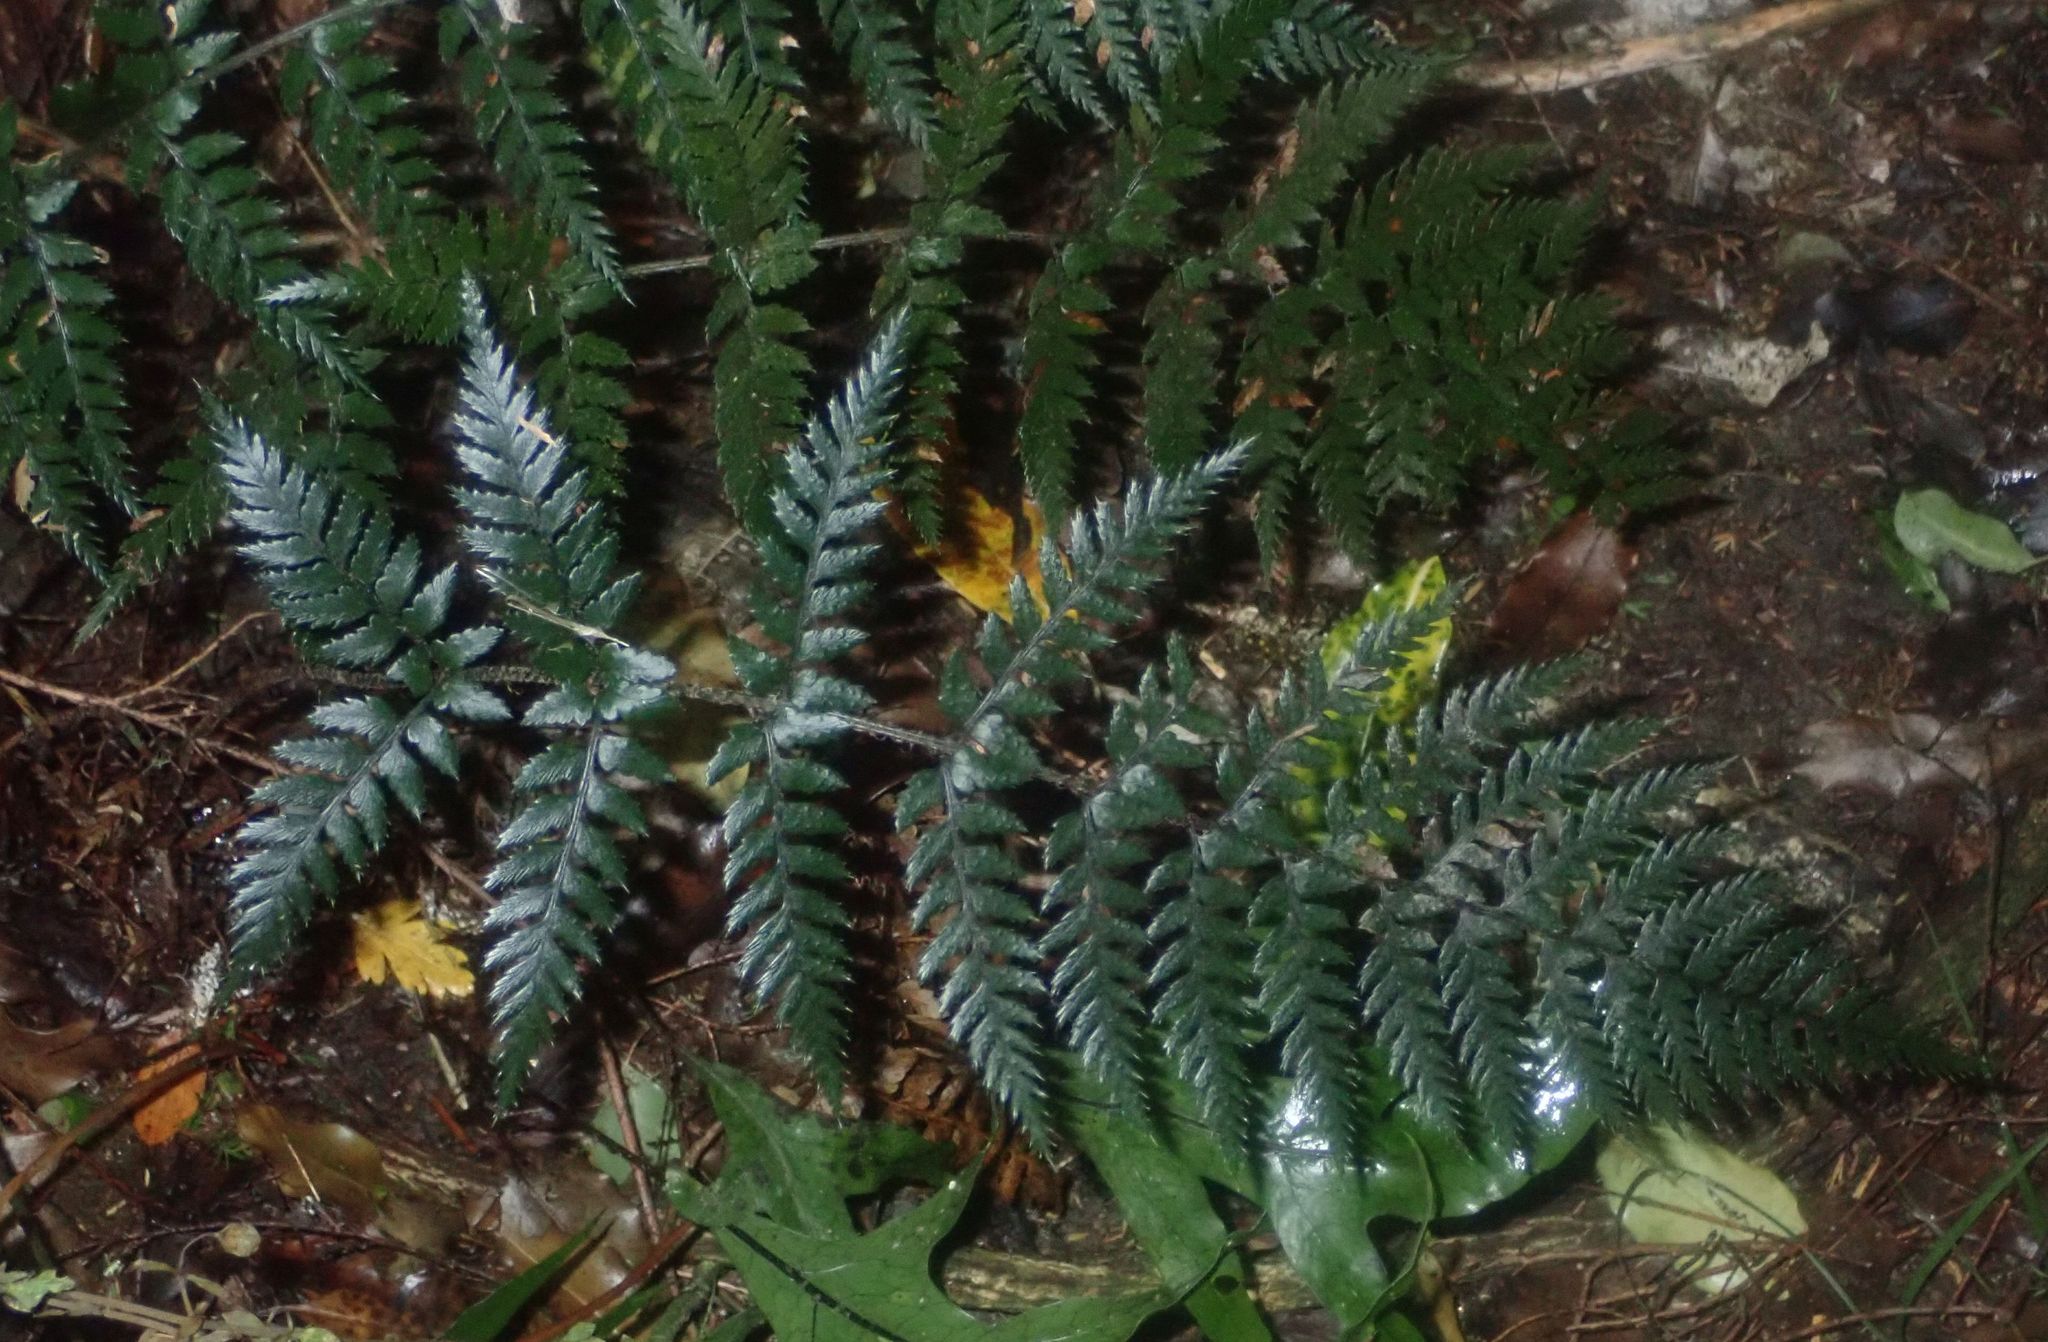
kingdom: Plantae
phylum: Tracheophyta
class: Polypodiopsida
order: Polypodiales
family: Dryopteridaceae
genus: Polystichum
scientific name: Polystichum neozelandicum
